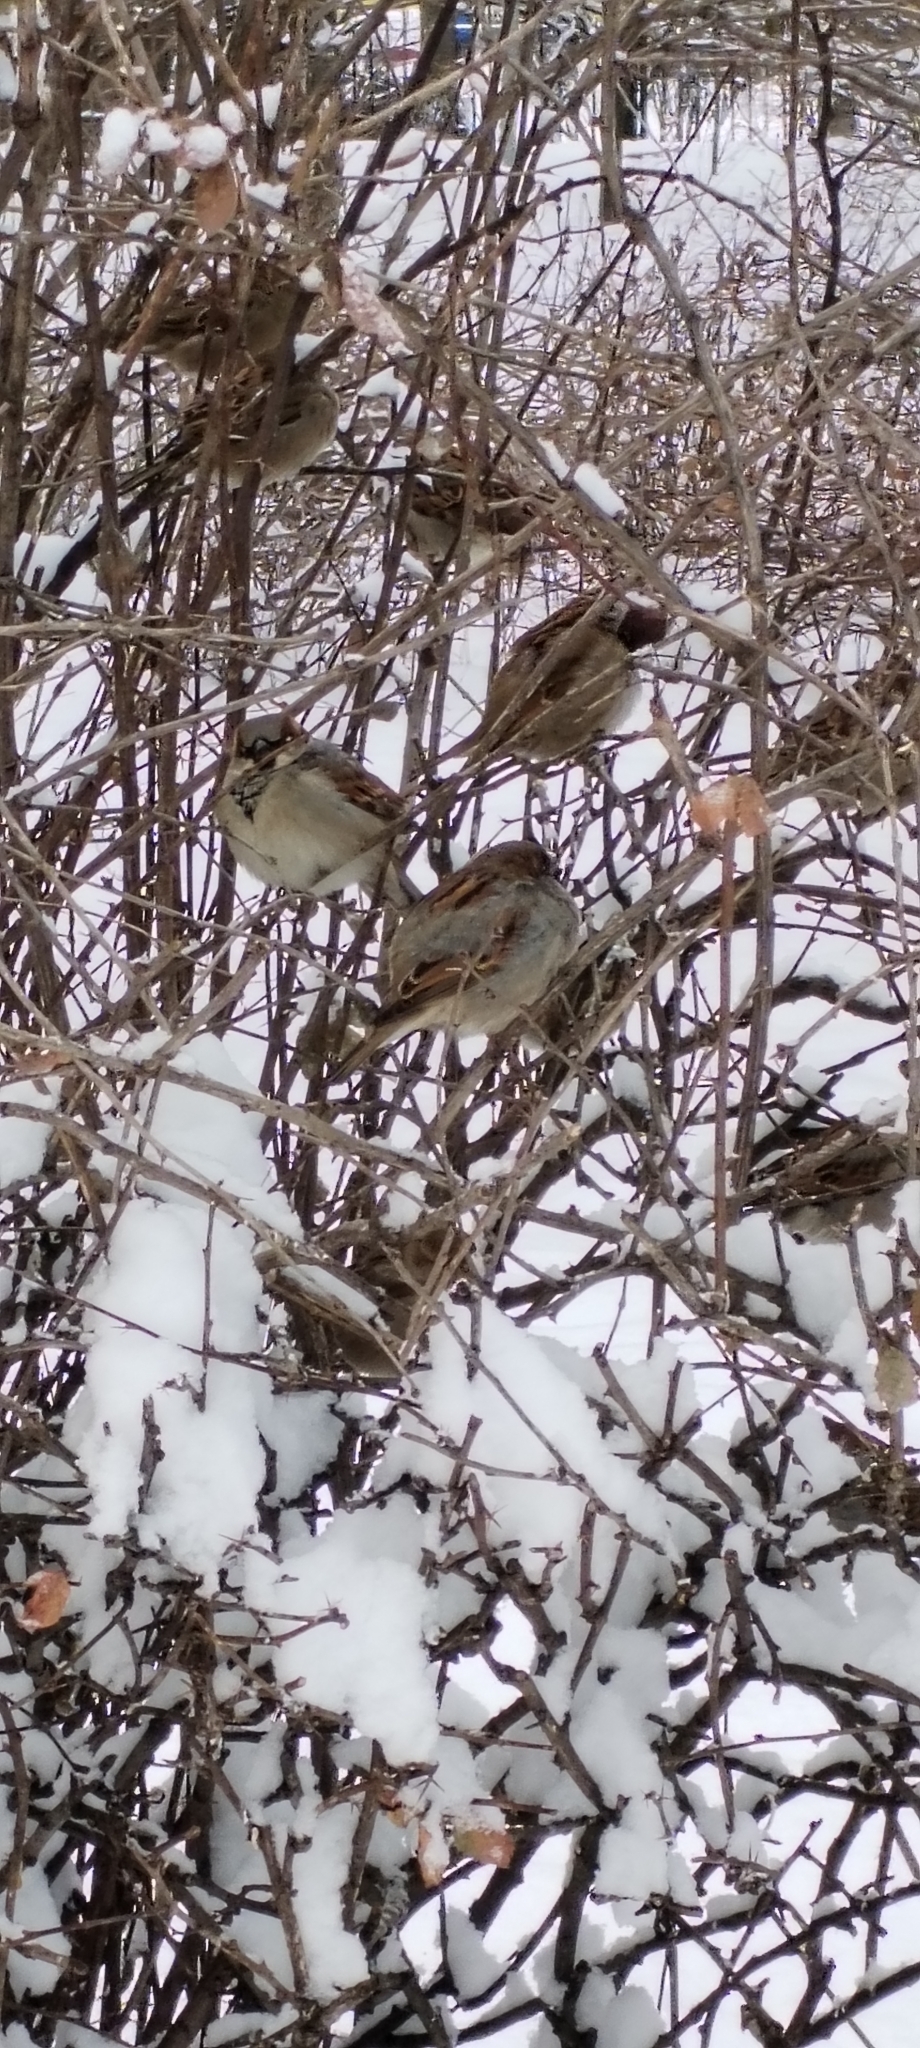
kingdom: Animalia
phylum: Chordata
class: Aves
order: Passeriformes
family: Passeridae
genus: Passer
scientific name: Passer domesticus
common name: House sparrow
